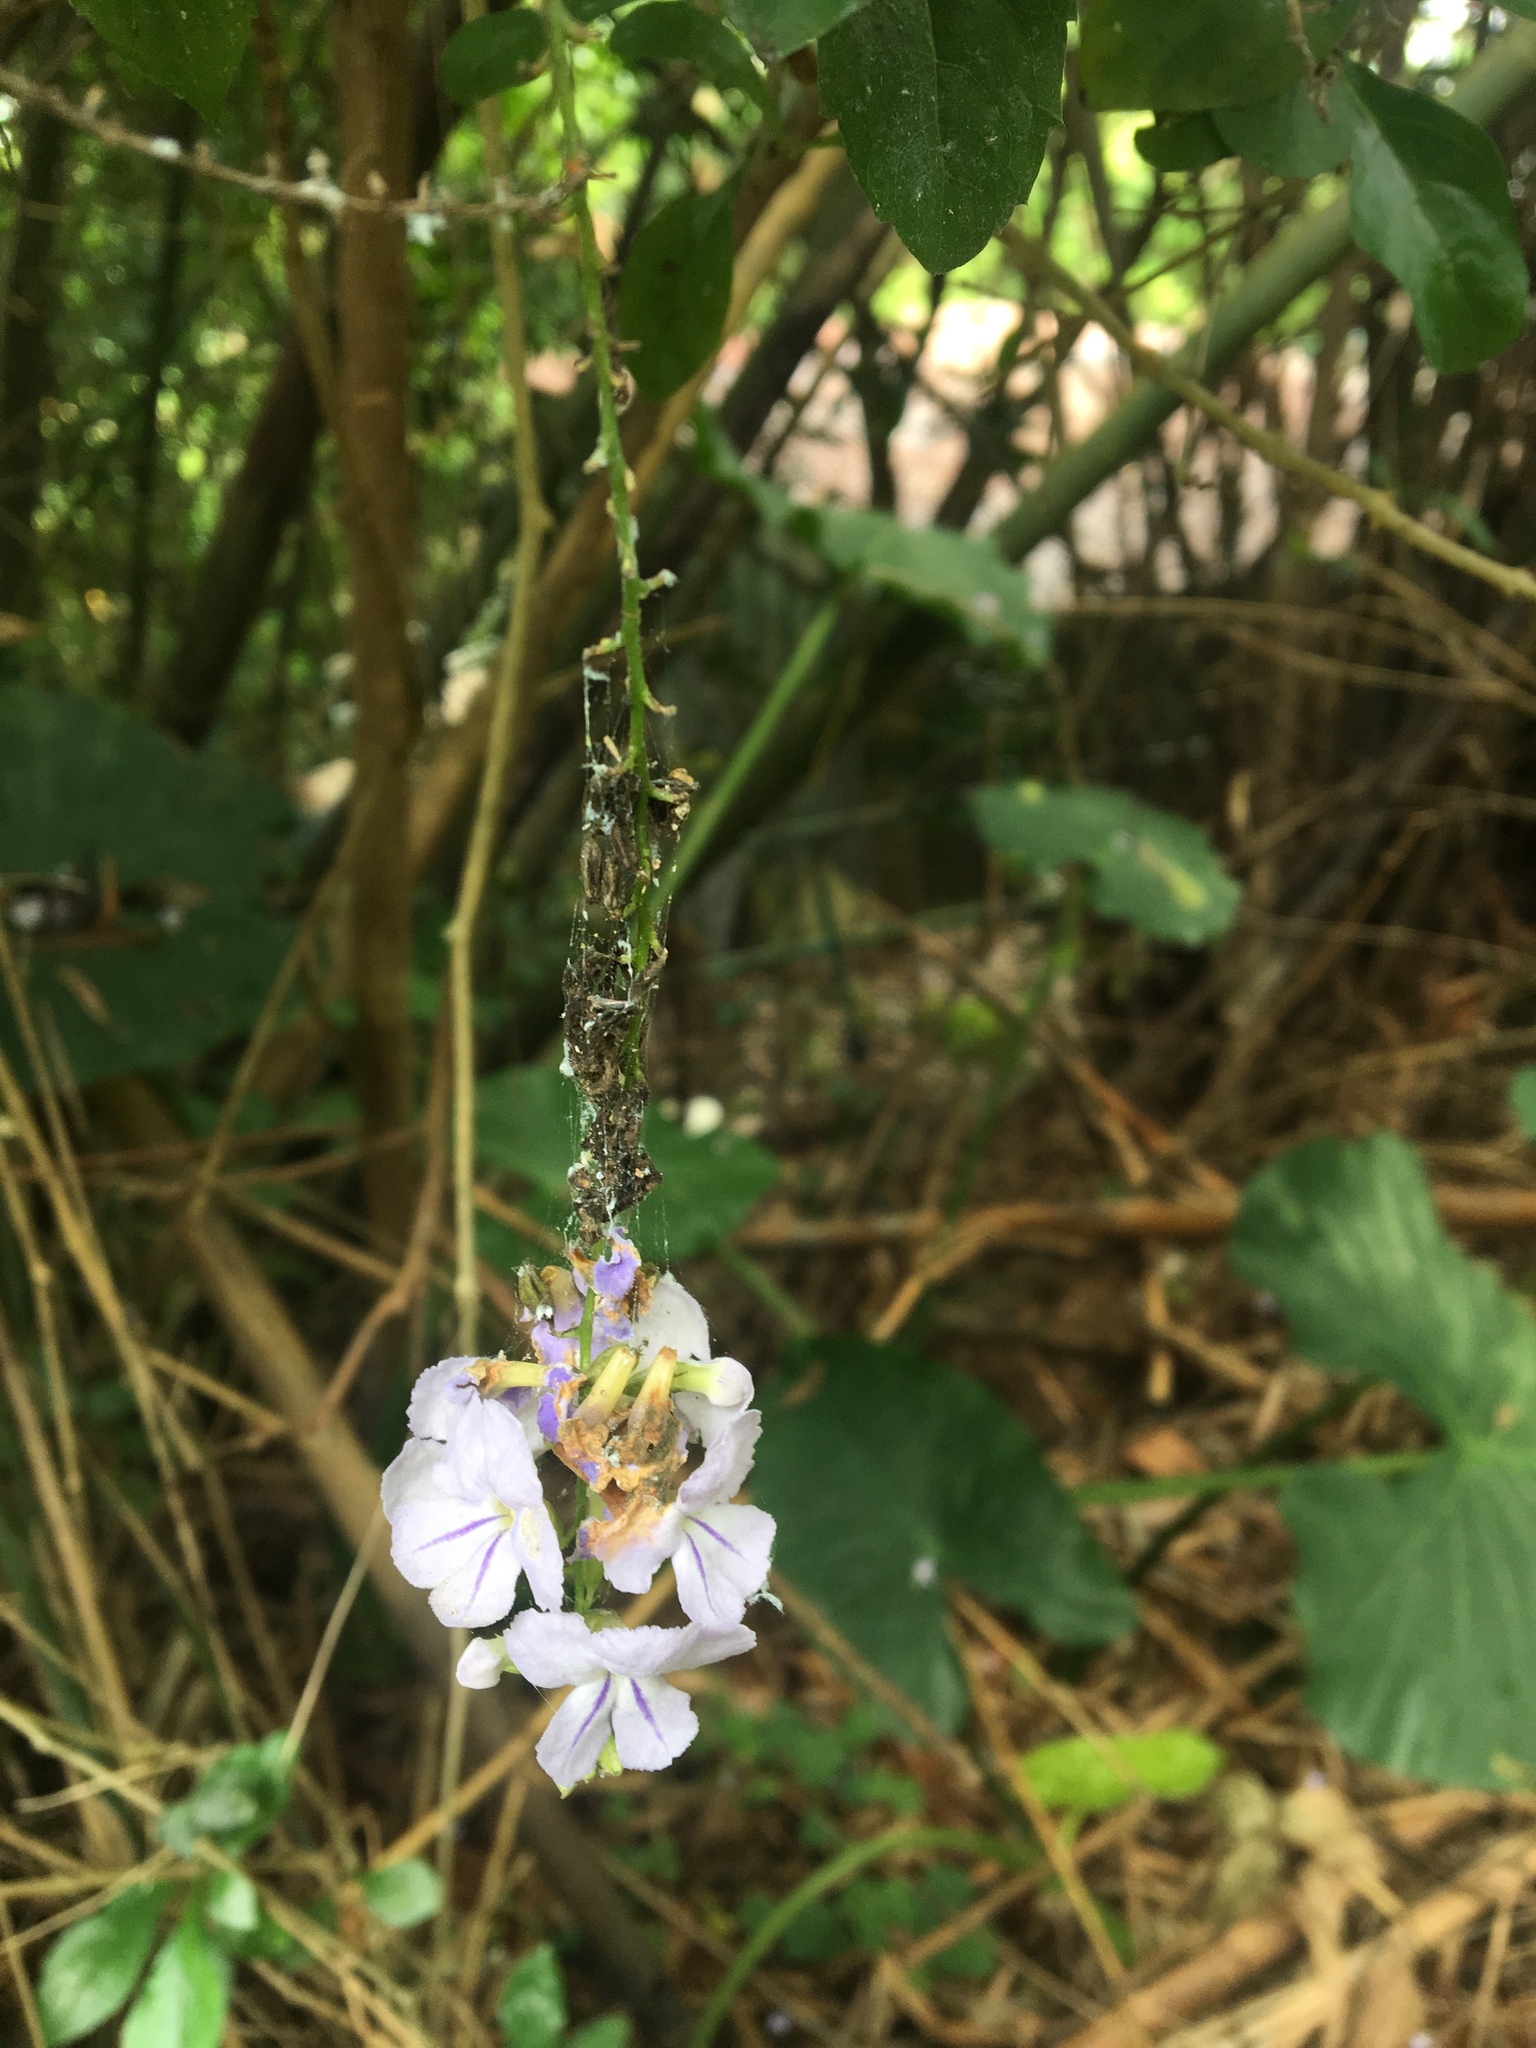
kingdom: Plantae
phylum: Tracheophyta
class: Magnoliopsida
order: Lamiales
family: Verbenaceae
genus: Duranta
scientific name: Duranta erecta
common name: Golden dewdrops
